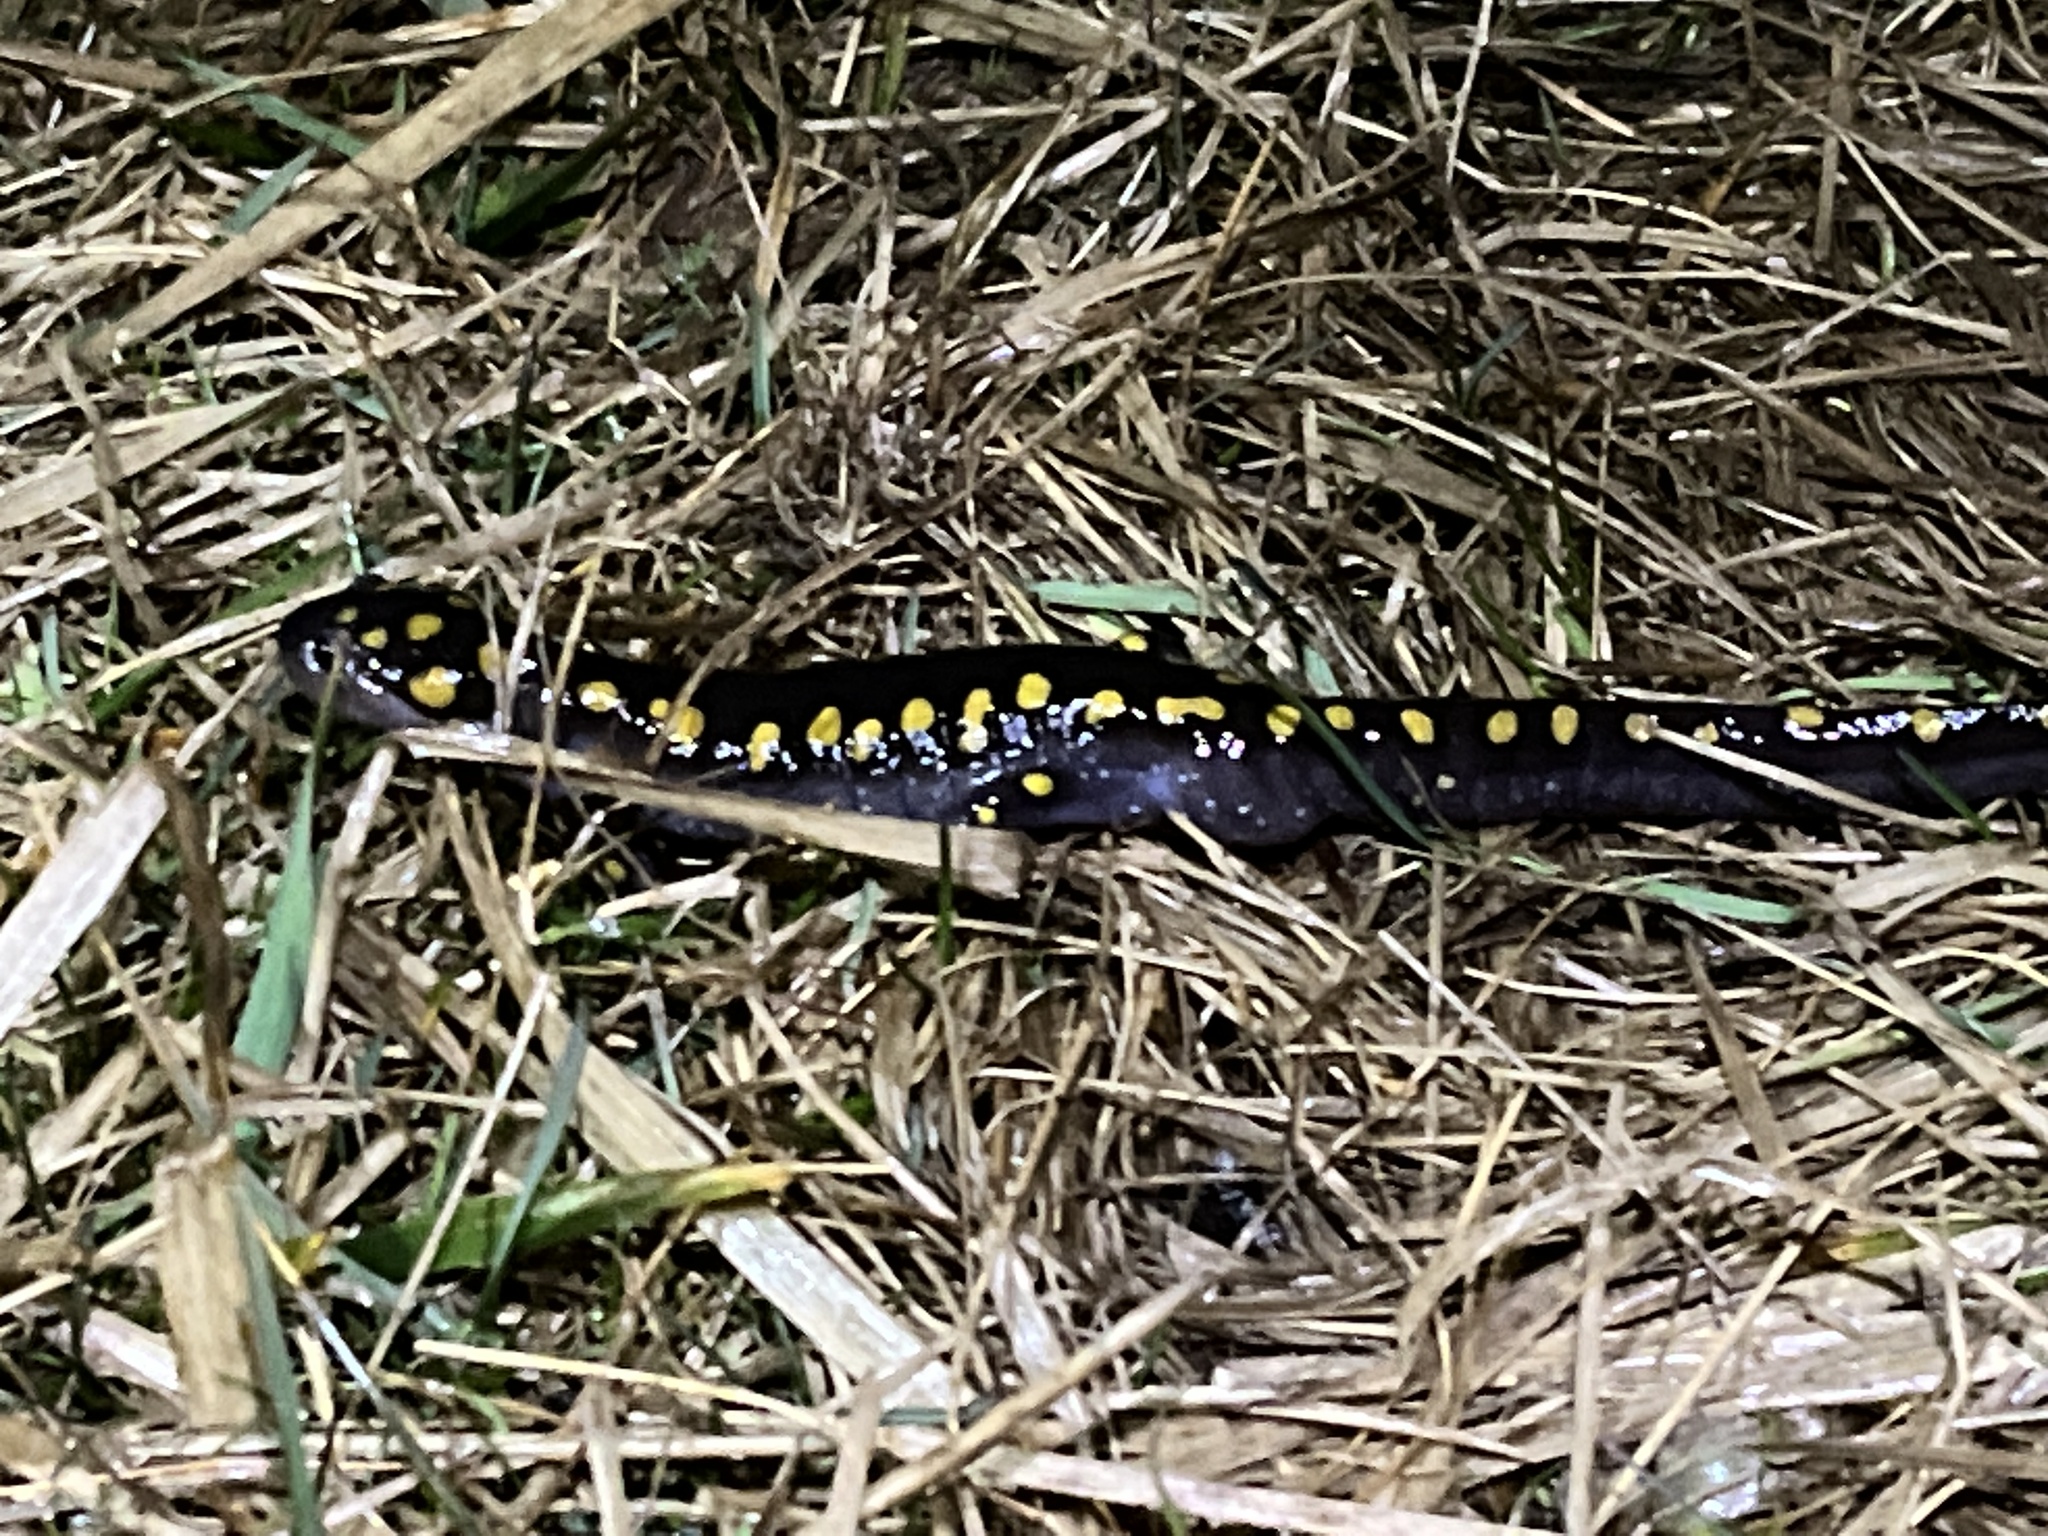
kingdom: Animalia
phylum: Chordata
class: Amphibia
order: Caudata
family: Ambystomatidae
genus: Ambystoma
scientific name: Ambystoma maculatum
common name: Spotted salamander
